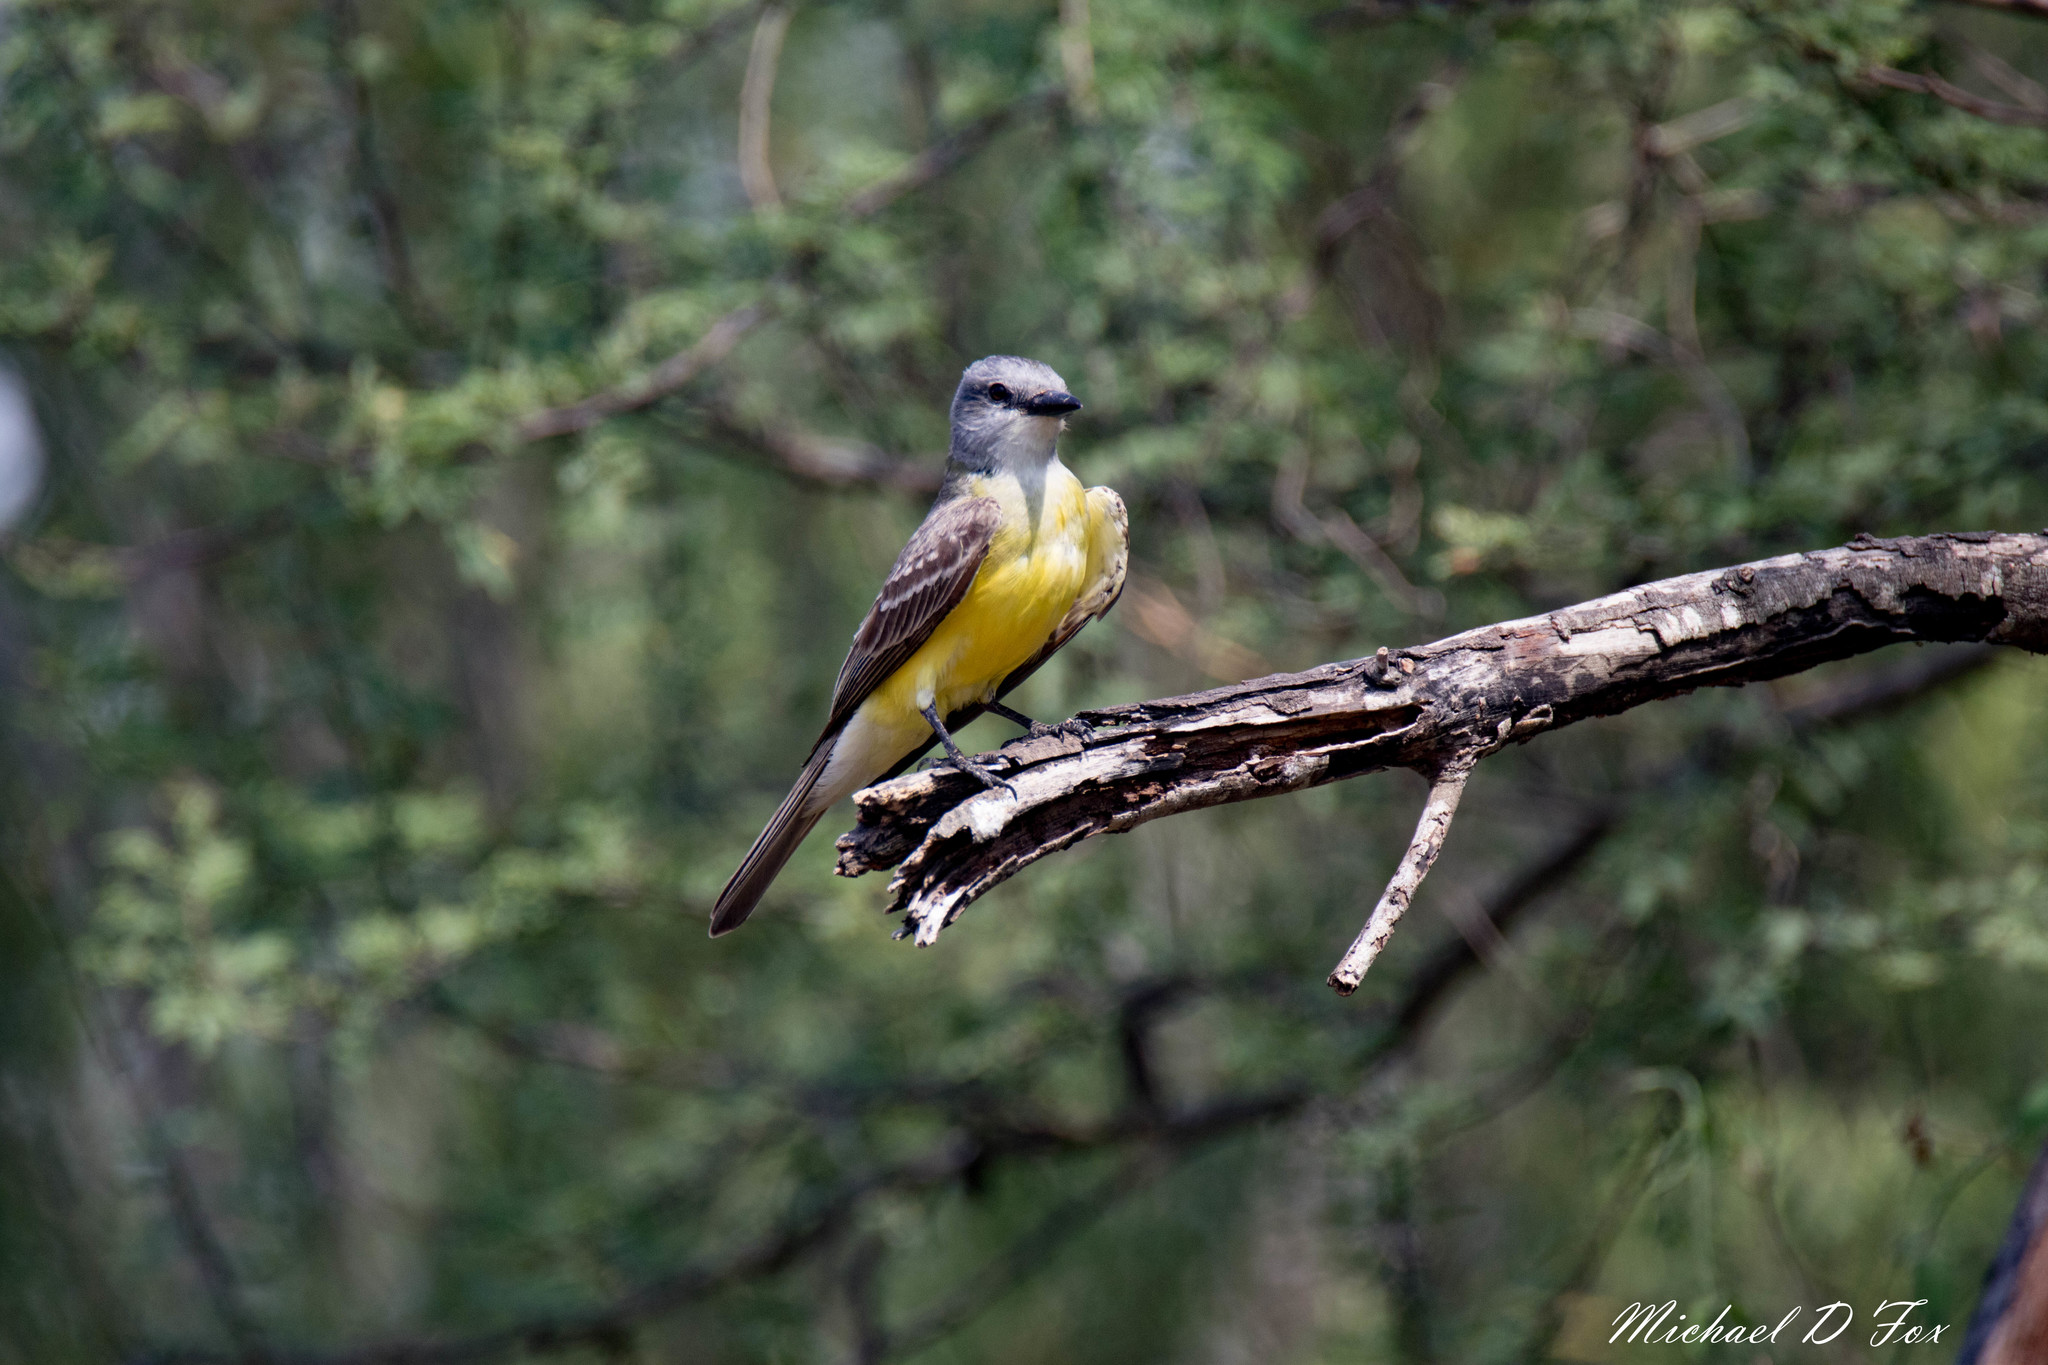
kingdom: Animalia
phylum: Chordata
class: Aves
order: Passeriformes
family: Tyrannidae
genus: Tyrannus
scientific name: Tyrannus verticalis
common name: Western kingbird
